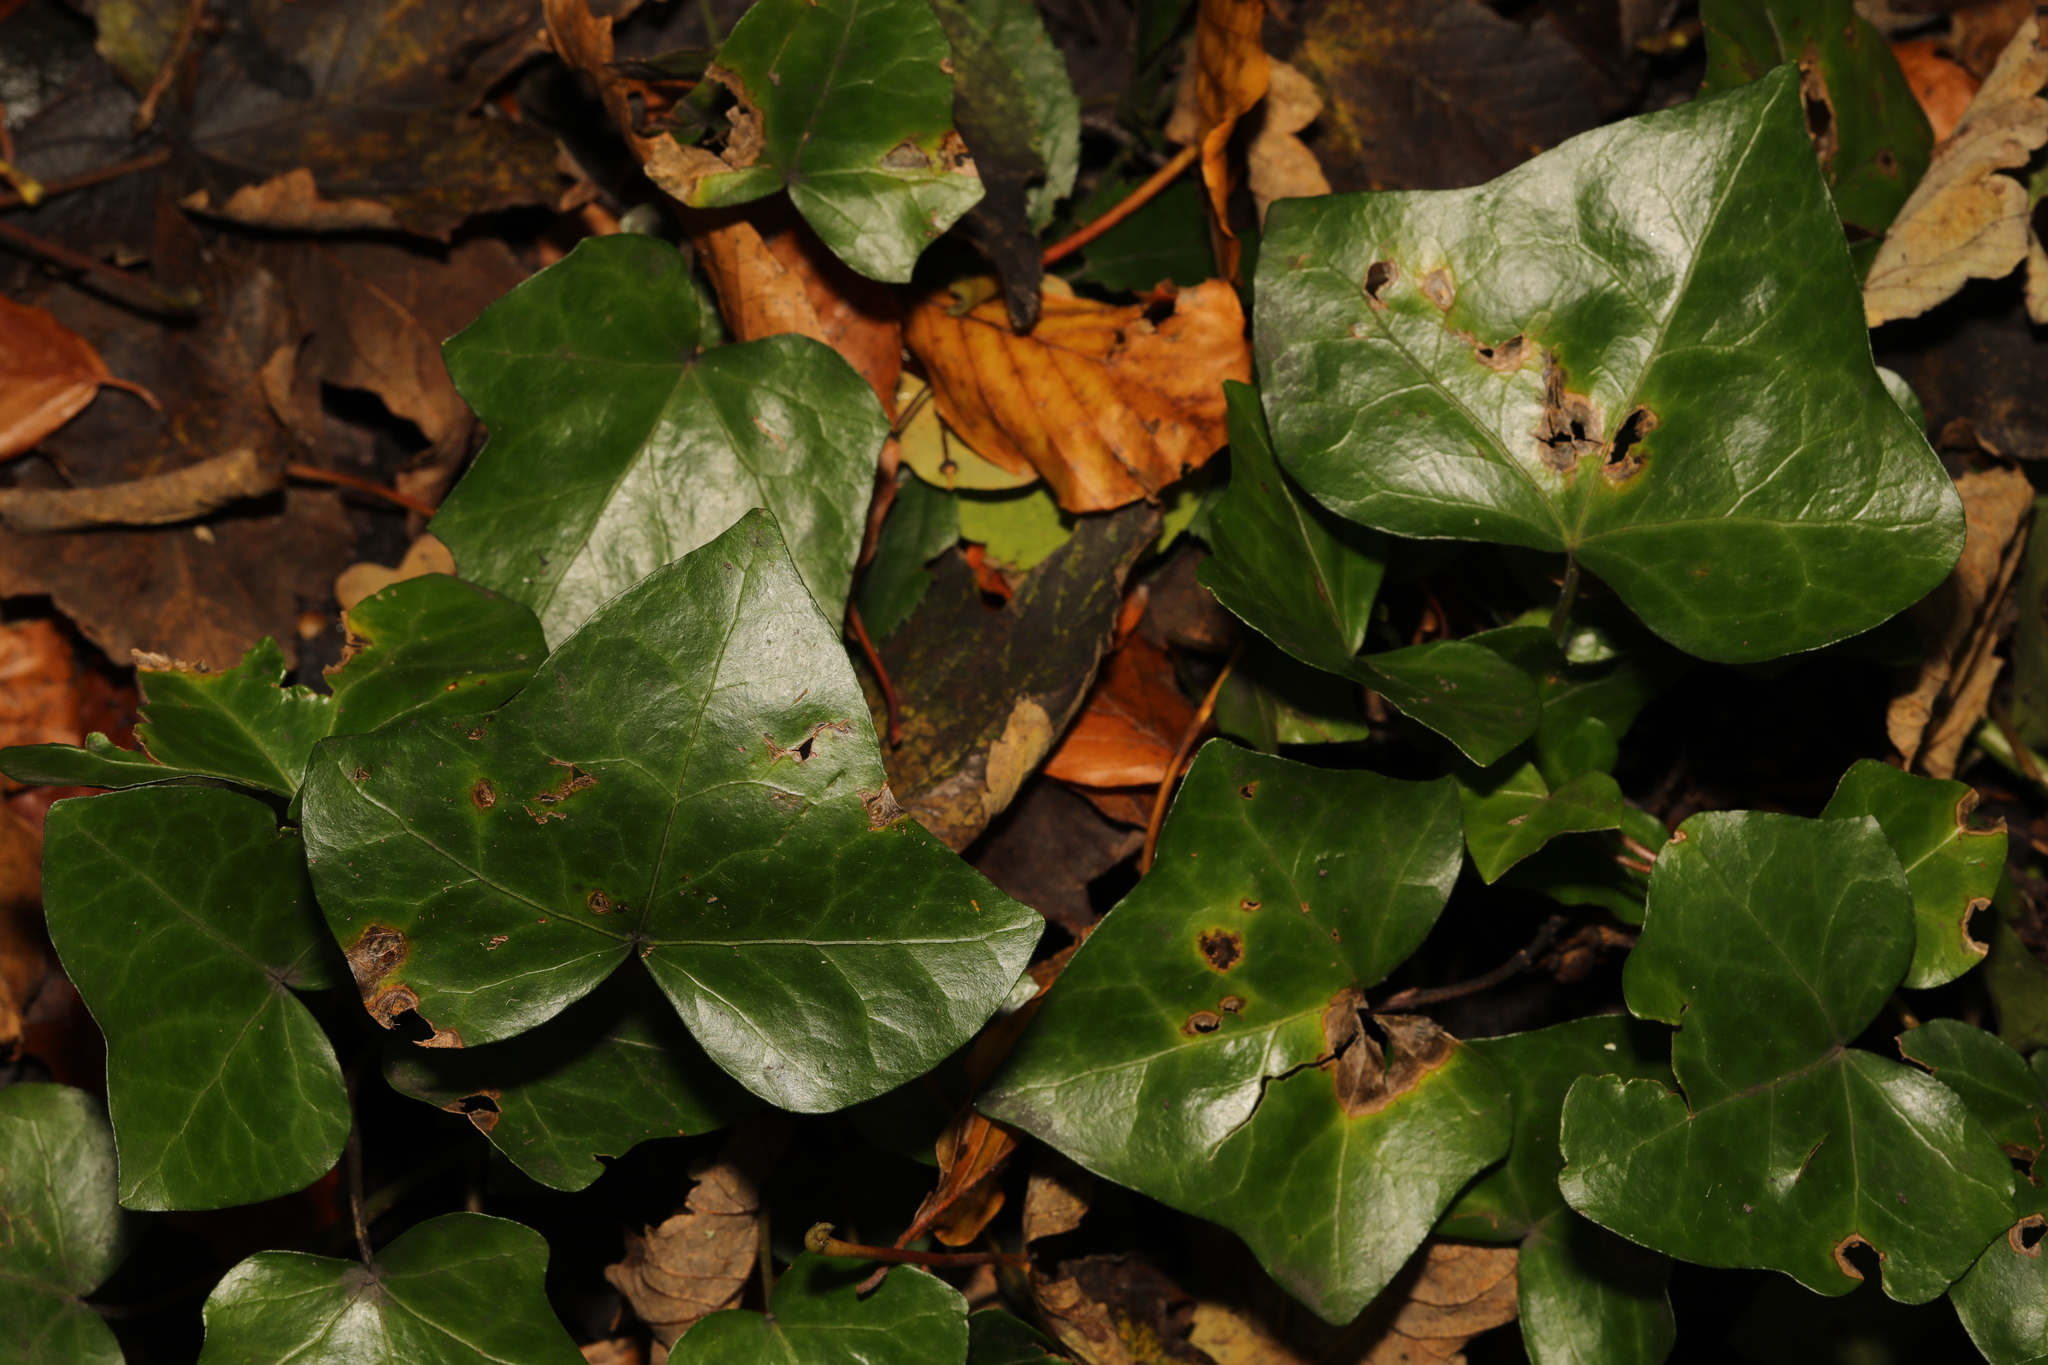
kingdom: Plantae
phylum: Tracheophyta
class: Magnoliopsida
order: Apiales
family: Araliaceae
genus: Hedera
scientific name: Hedera helix
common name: Ivy
